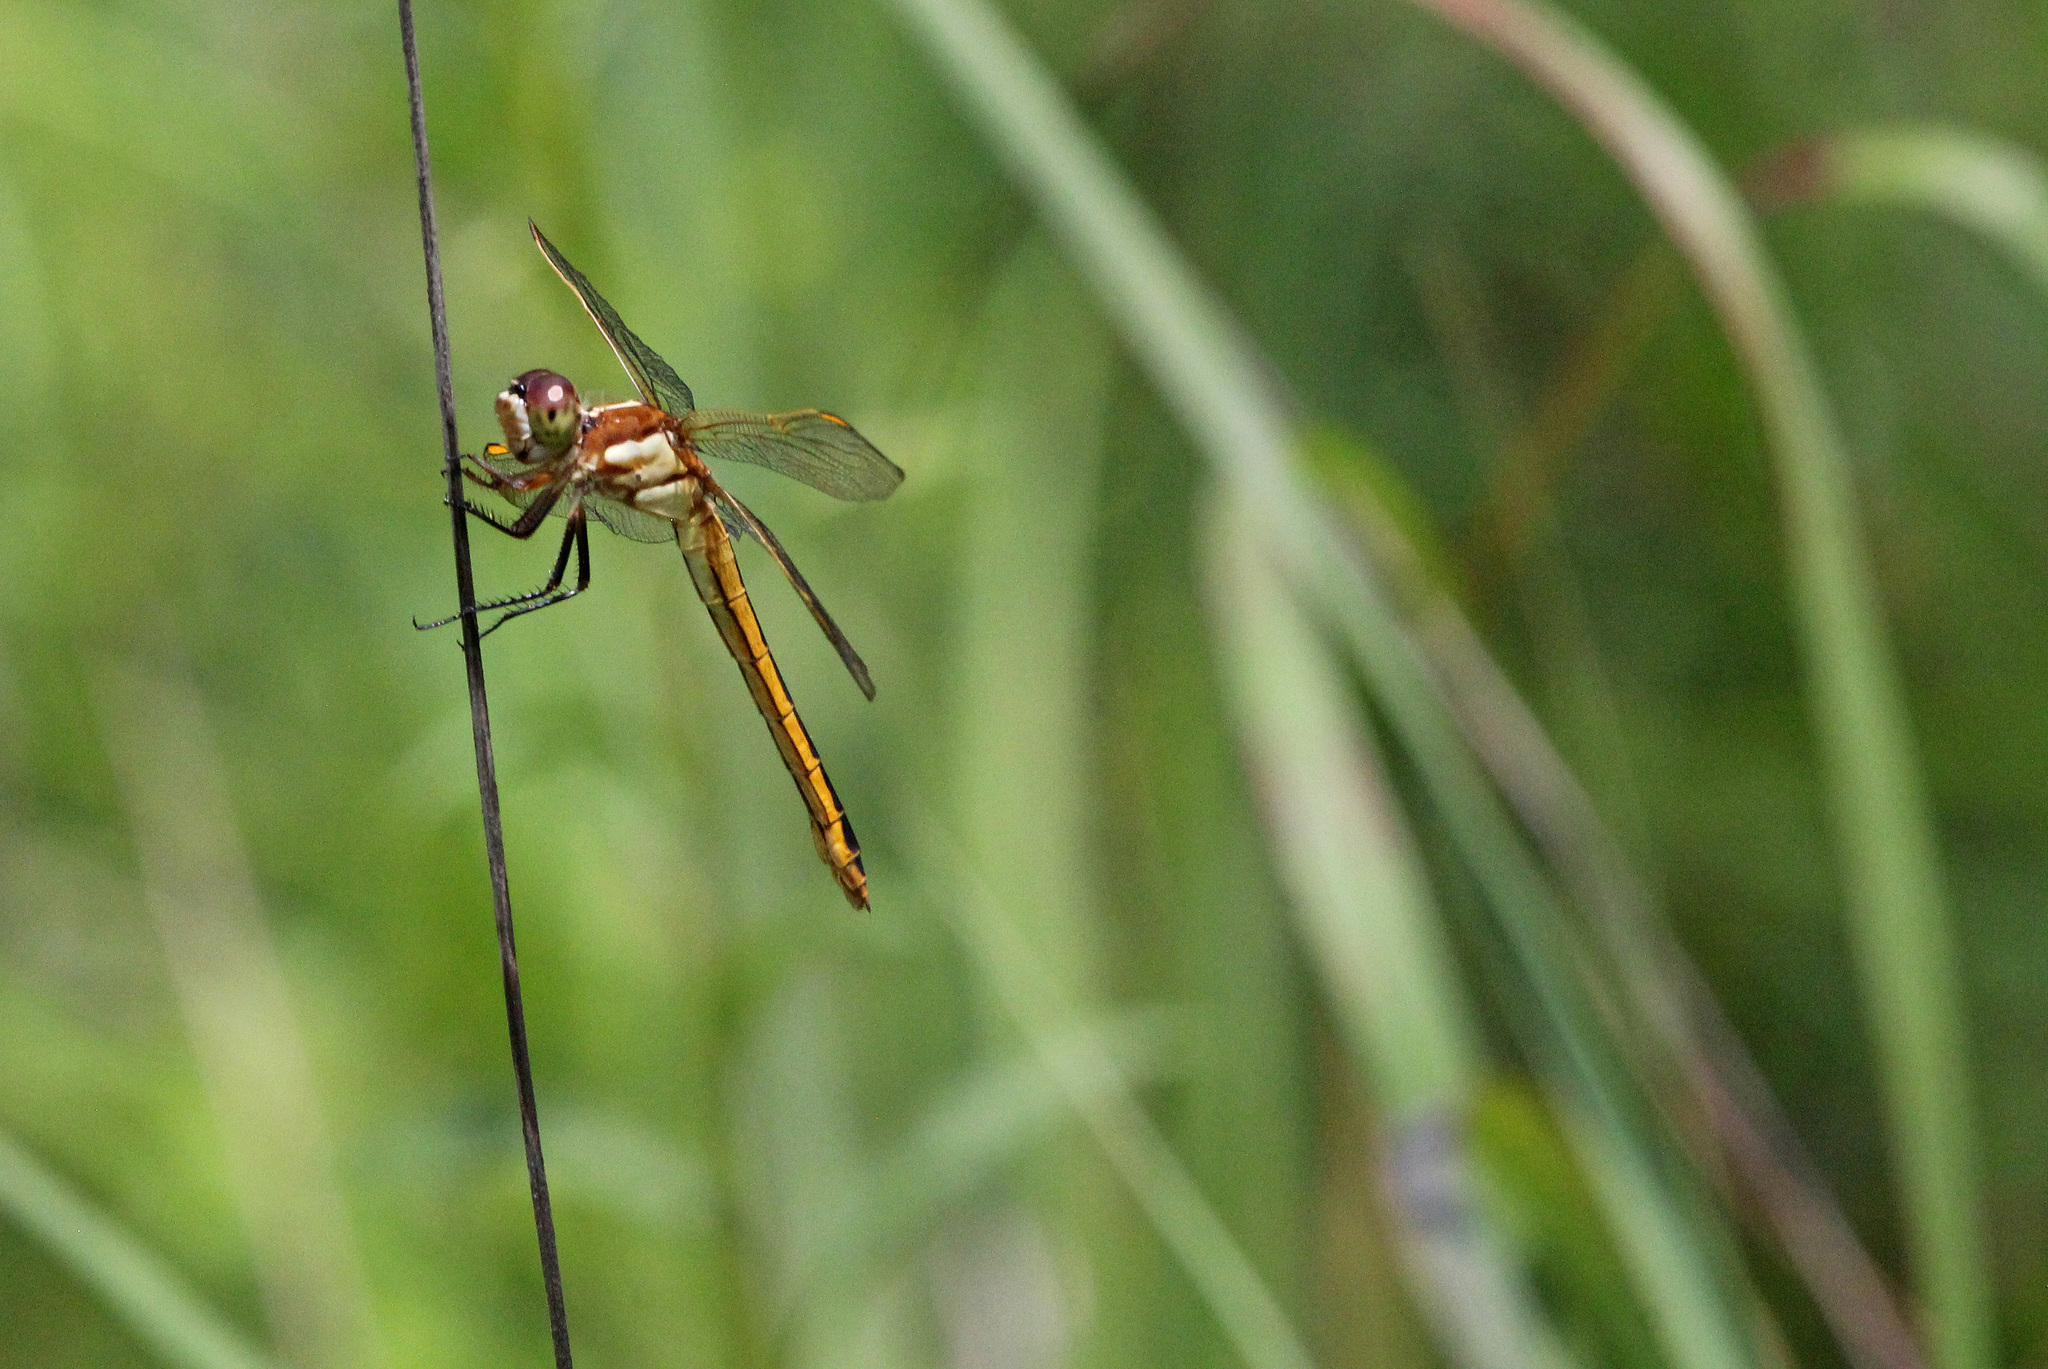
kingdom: Animalia
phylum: Arthropoda
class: Insecta
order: Odonata
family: Libellulidae
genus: Libellula
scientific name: Libellula auripennis
